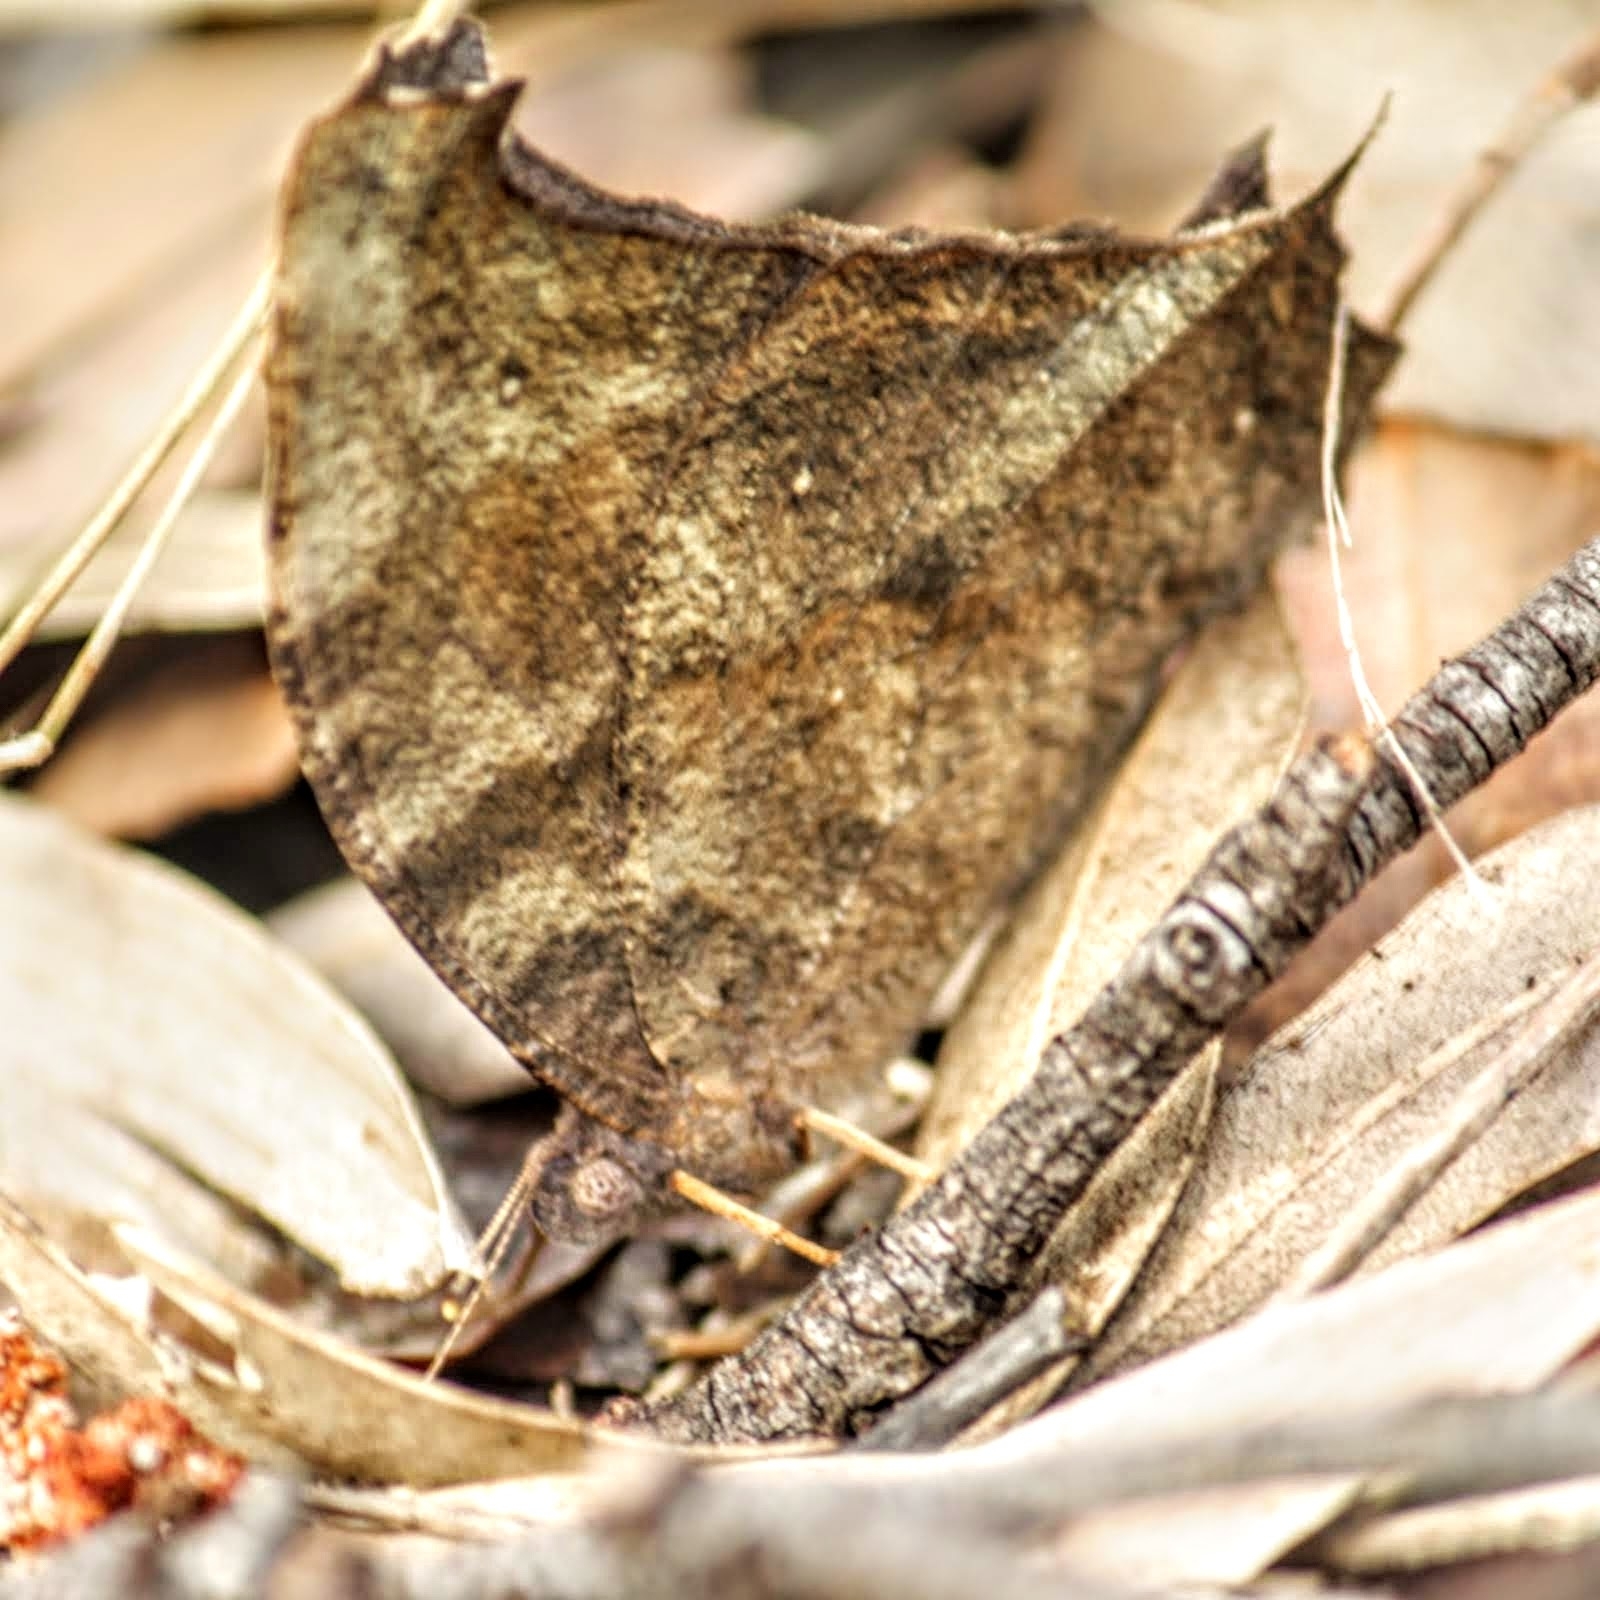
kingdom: Animalia
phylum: Arthropoda
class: Insecta
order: Lepidoptera
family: Nymphalidae
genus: Melanitis
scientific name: Melanitis leda
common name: Twilight brown
